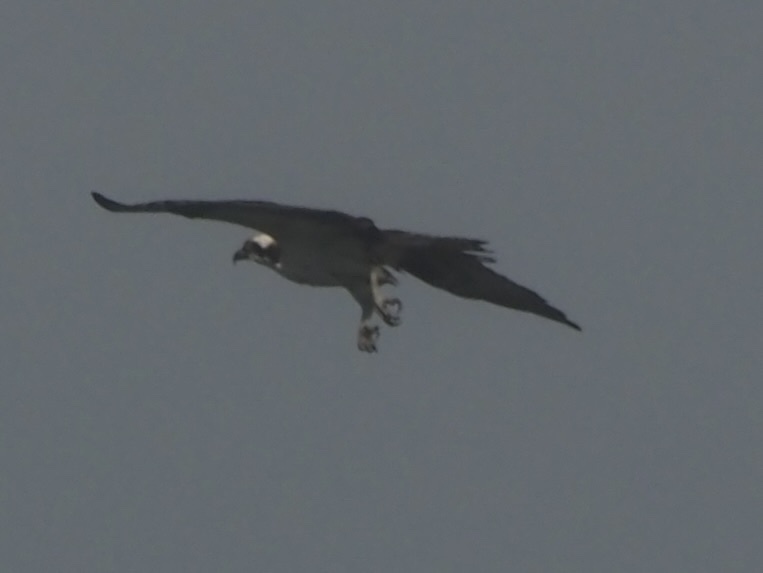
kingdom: Animalia
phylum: Chordata
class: Aves
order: Accipitriformes
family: Pandionidae
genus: Pandion
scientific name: Pandion haliaetus
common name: Osprey
